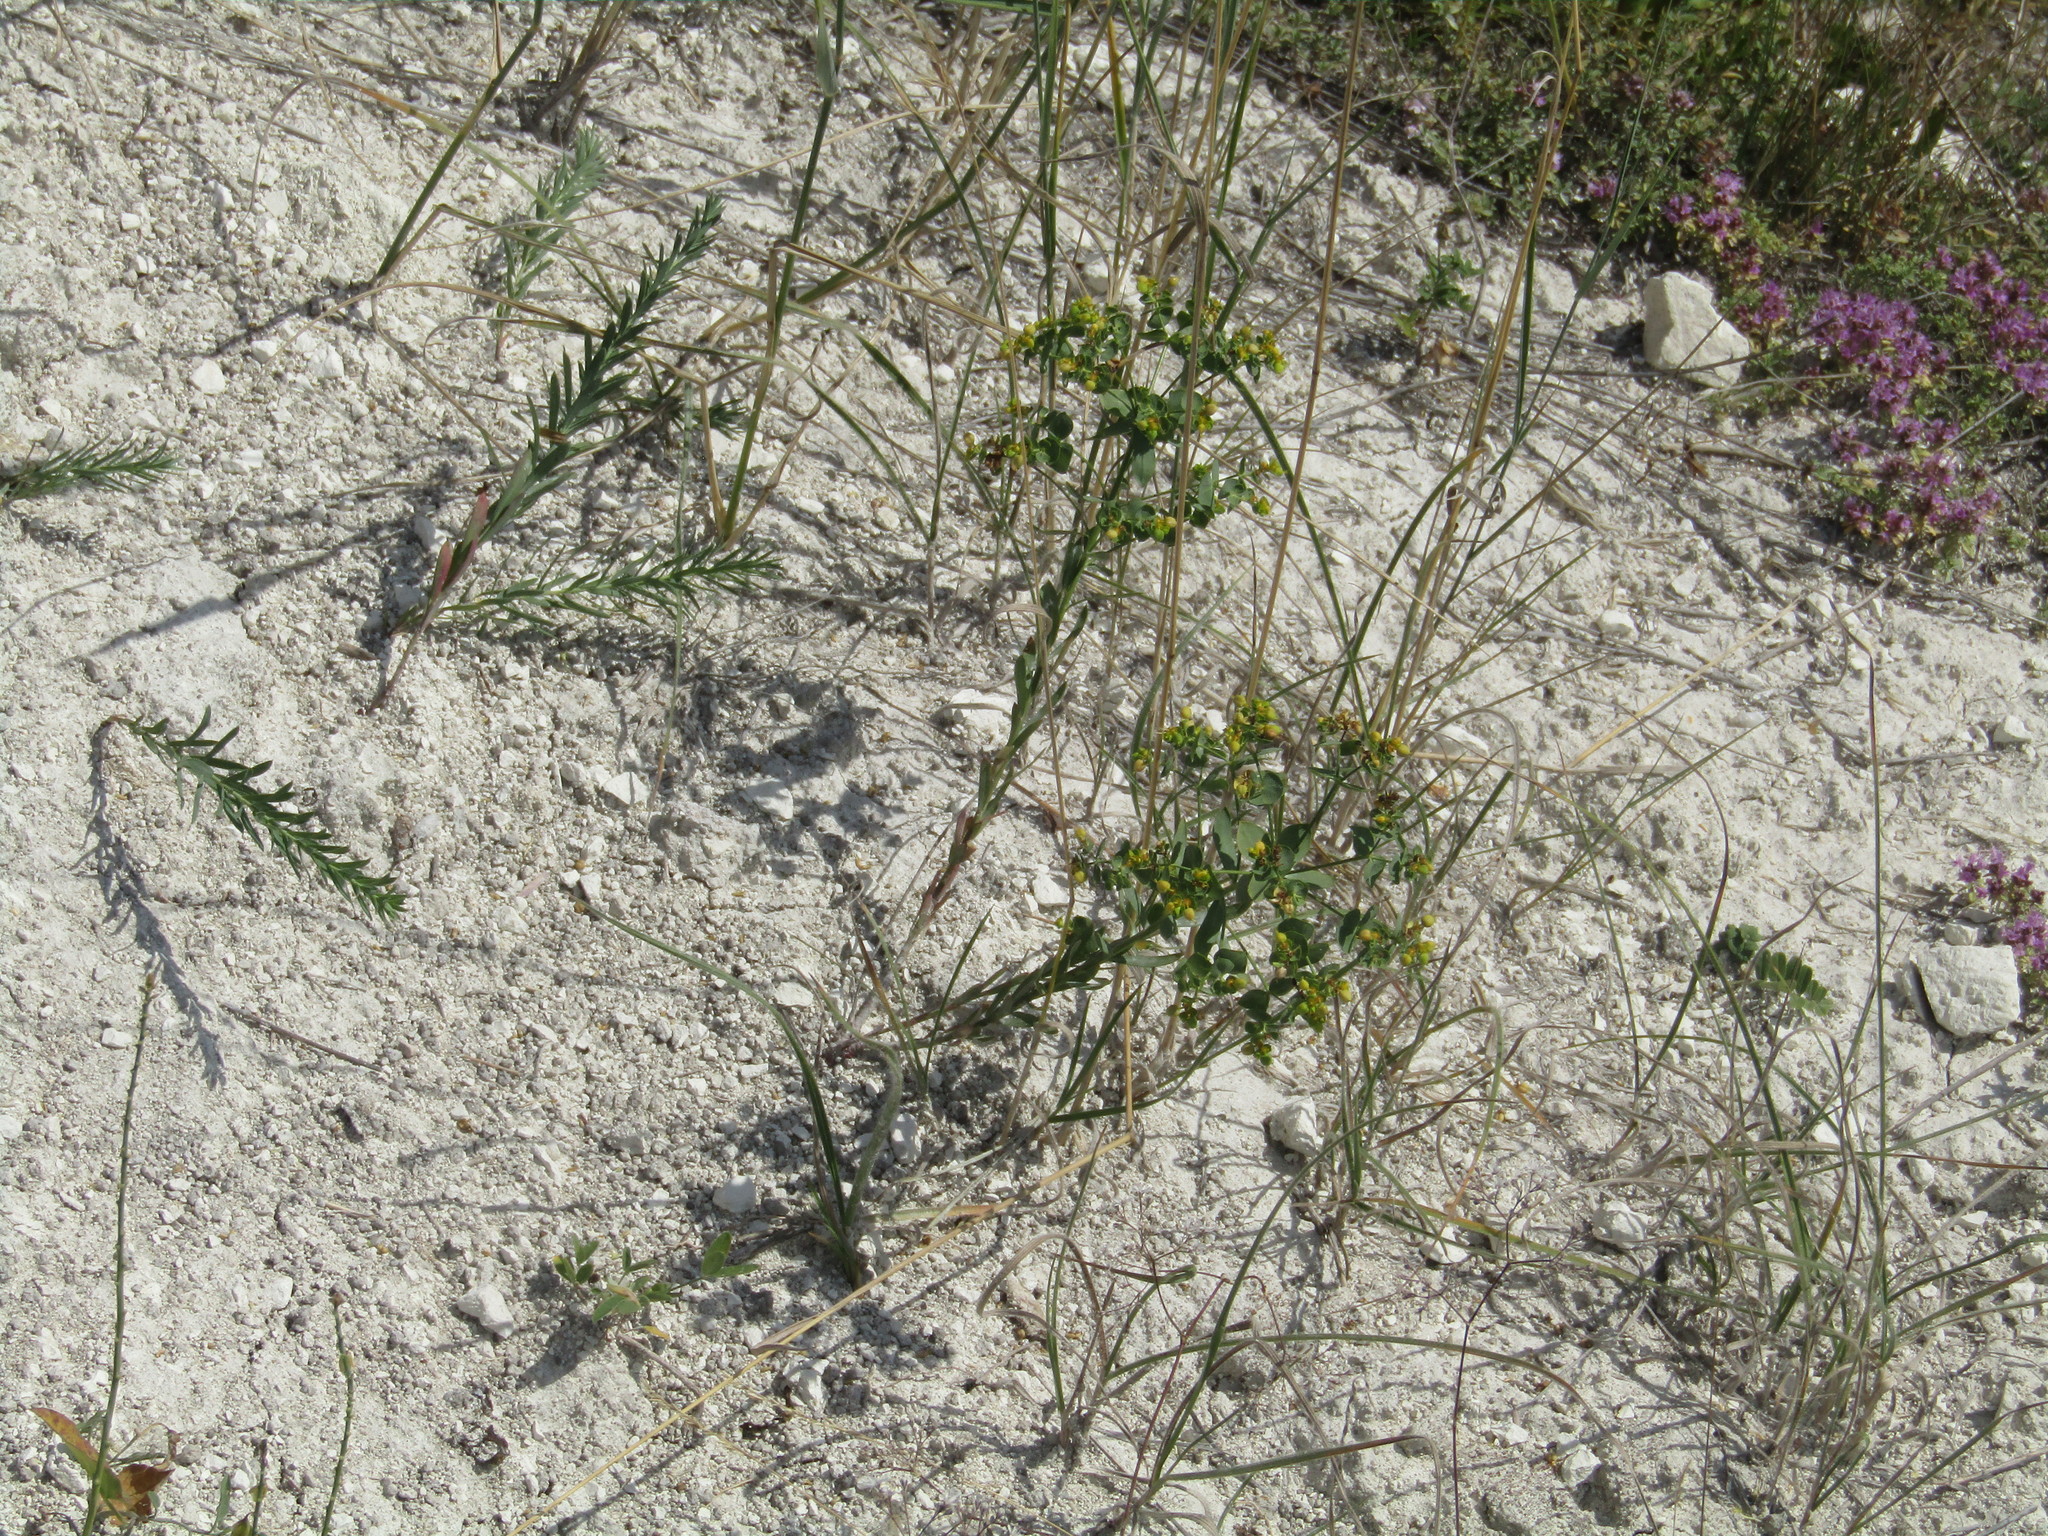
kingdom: Plantae
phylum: Tracheophyta
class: Magnoliopsida
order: Malpighiales
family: Euphorbiaceae
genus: Euphorbia
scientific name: Euphorbia seguieriana
